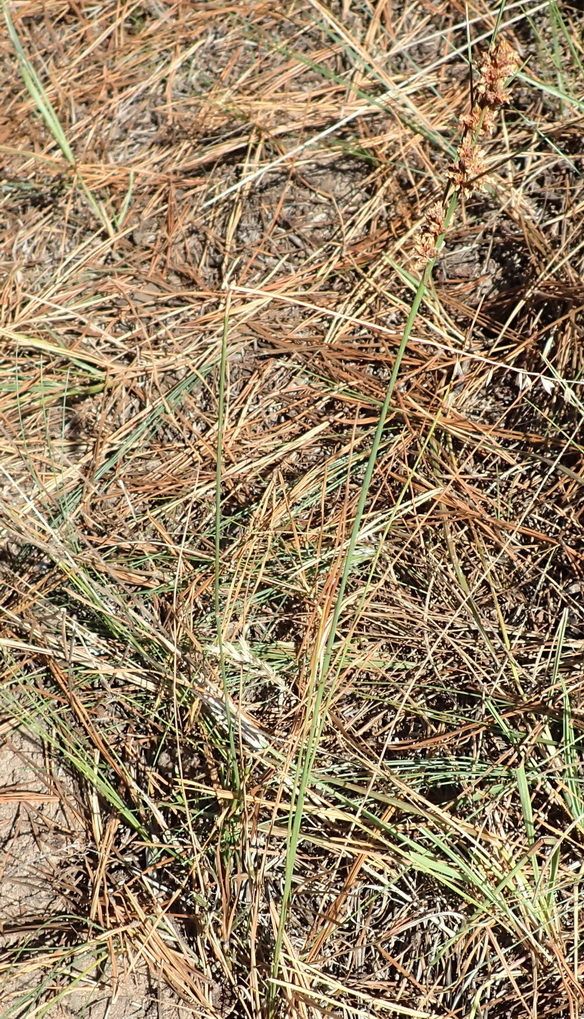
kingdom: Plantae
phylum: Tracheophyta
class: Liliopsida
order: Poales
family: Cyperaceae
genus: Ficinia
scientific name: Ficinia bulbosa
